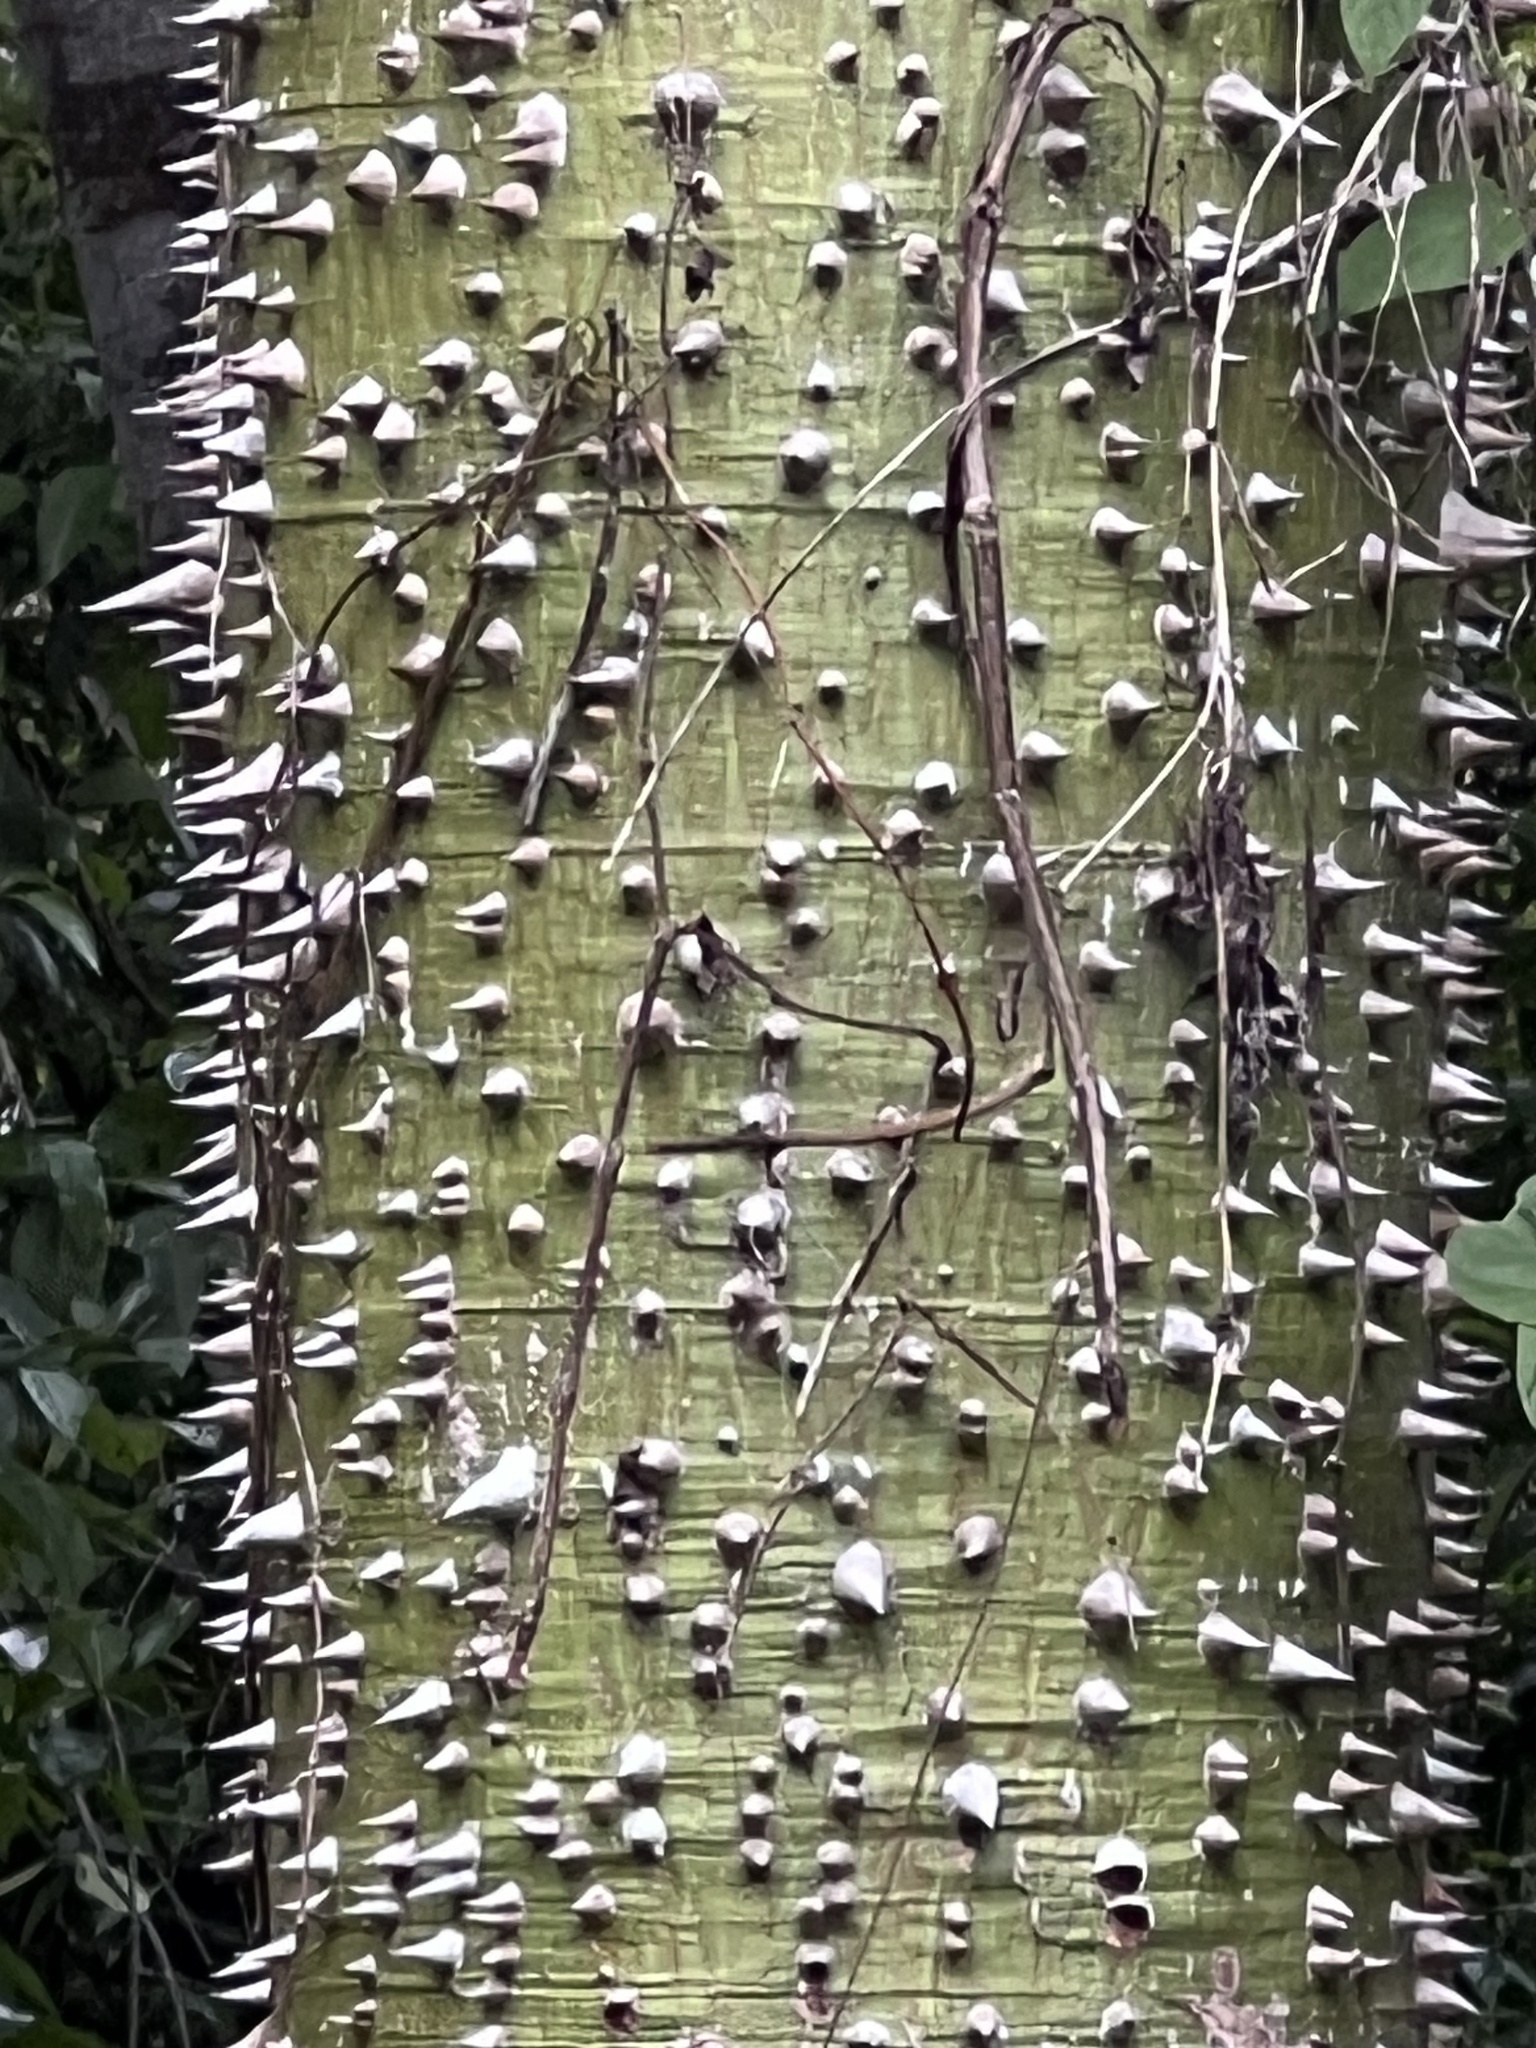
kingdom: Plantae
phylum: Tracheophyta
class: Magnoliopsida
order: Malvales
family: Malvaceae
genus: Ceiba
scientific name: Ceiba pentandra
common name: Kapok
